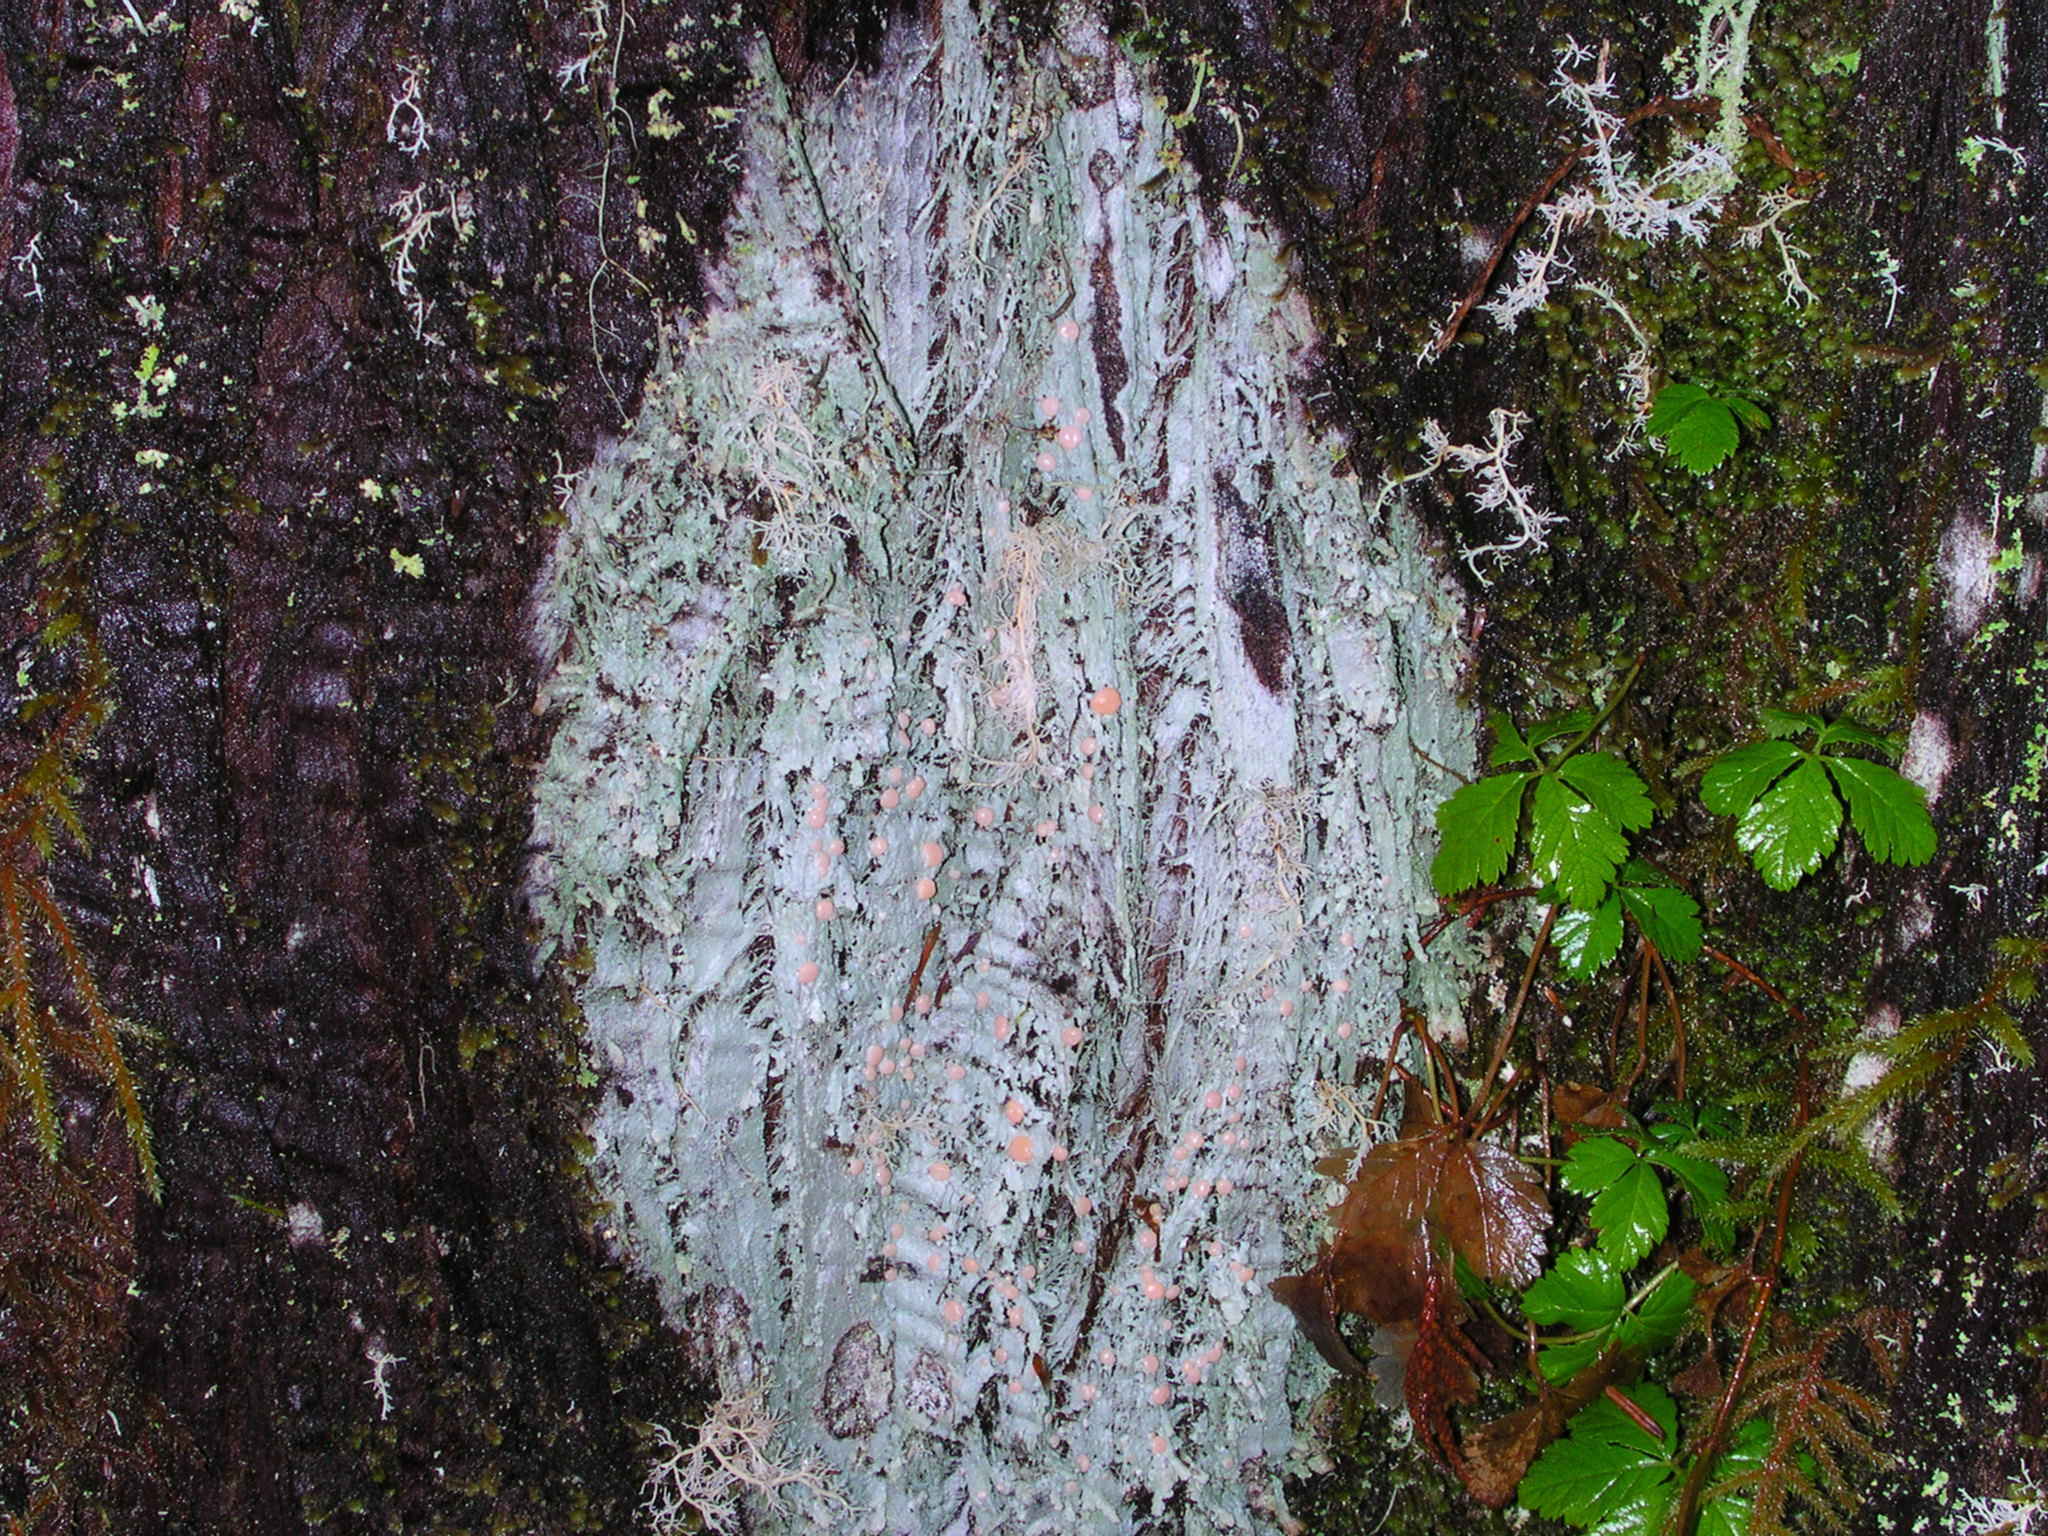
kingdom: Fungi
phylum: Ascomycota
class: Lecanoromycetes
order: Pertusariales
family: Icmadophilaceae
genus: Icmadophila
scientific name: Icmadophila ericetorum
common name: Candy lichen
